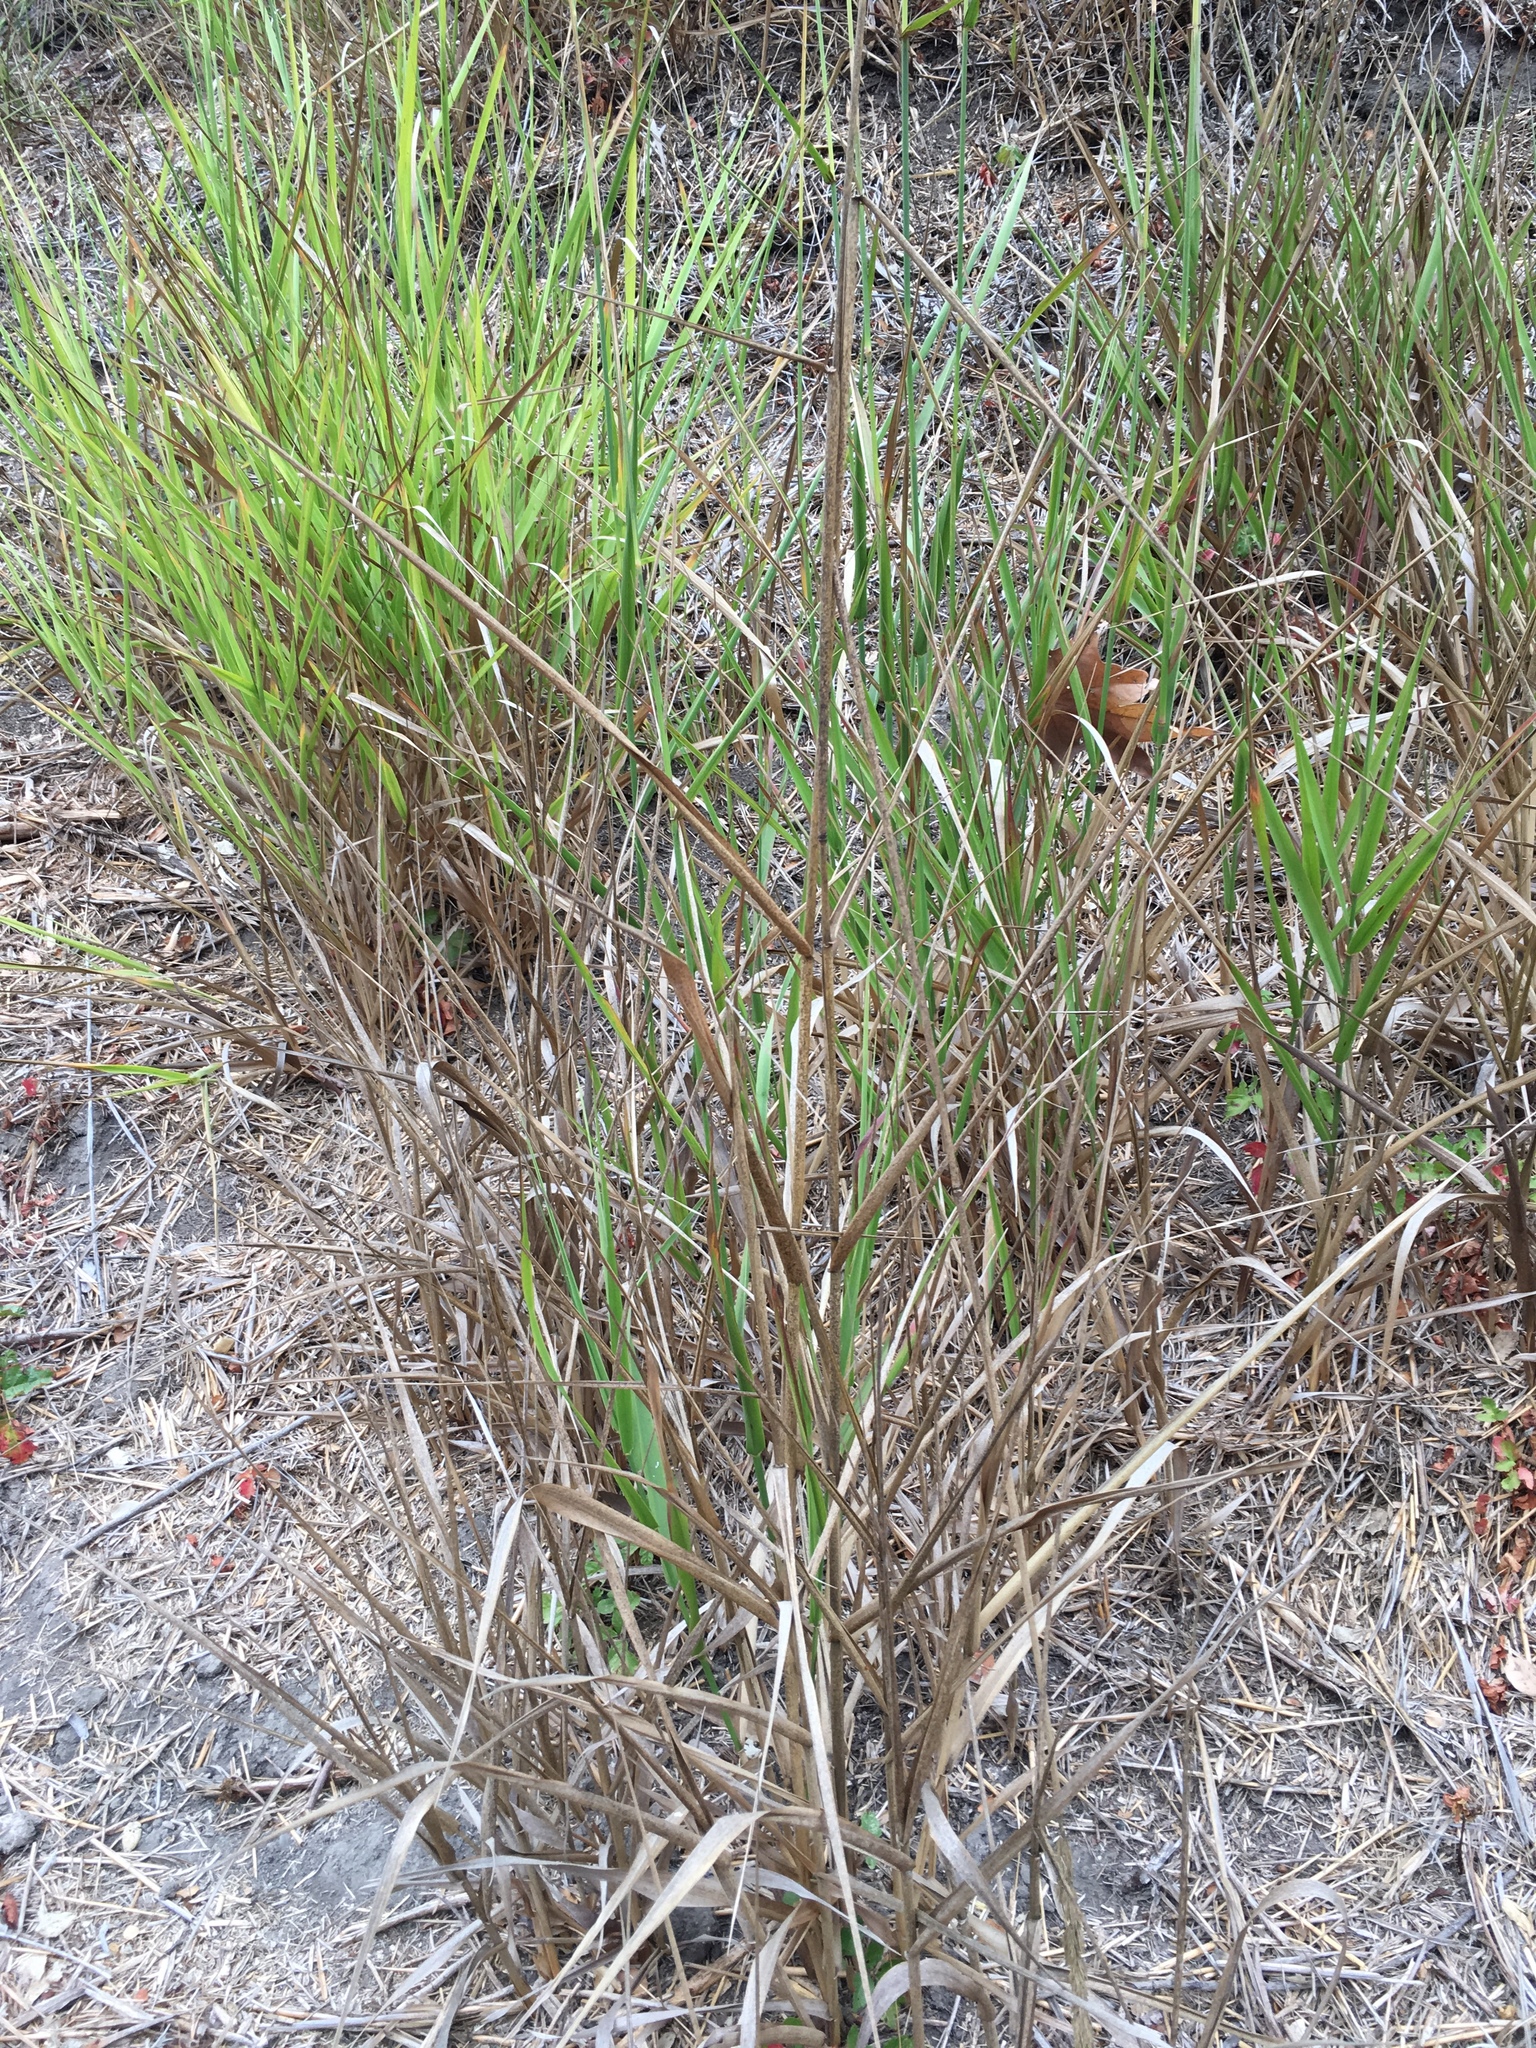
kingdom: Plantae
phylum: Tracheophyta
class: Liliopsida
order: Poales
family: Poaceae
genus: Leymus
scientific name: Leymus condensatus
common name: Giant wild rye
